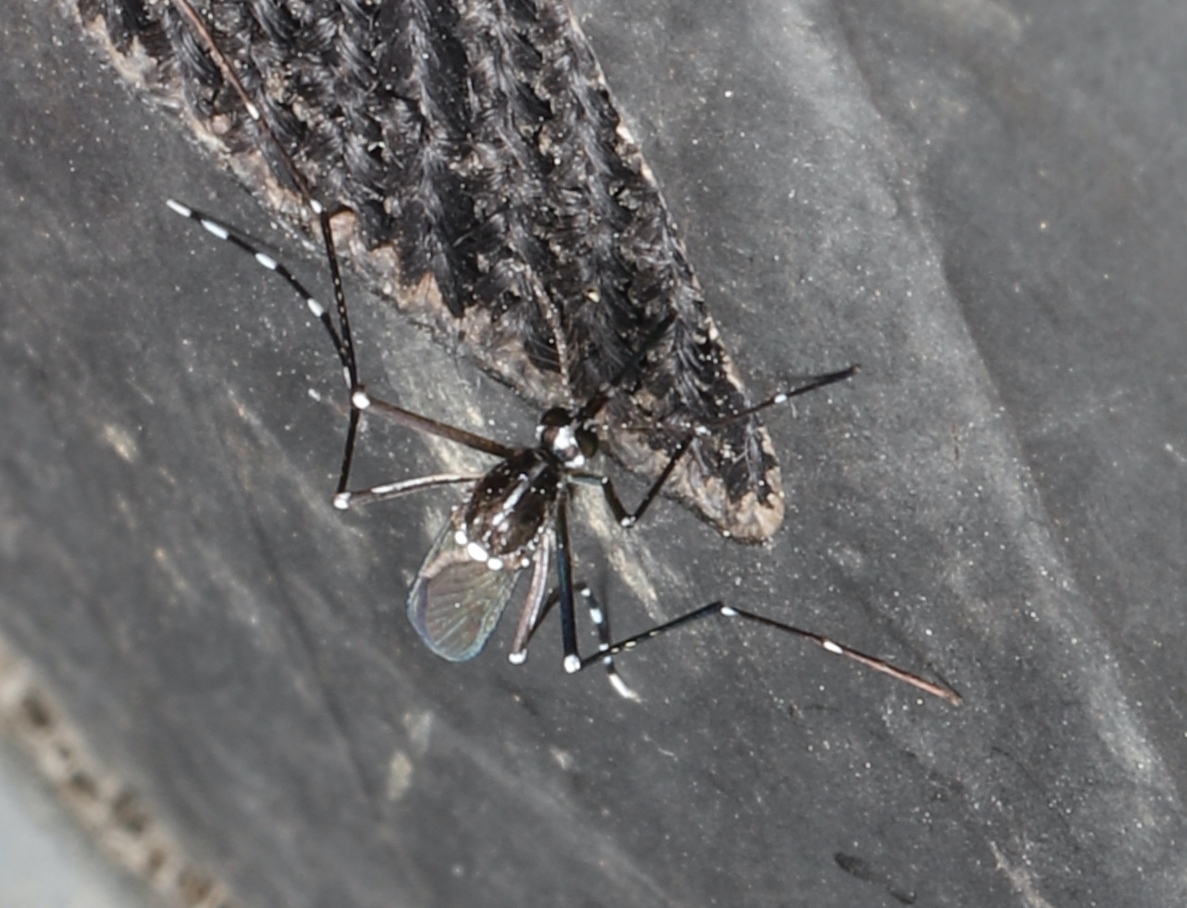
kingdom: Animalia
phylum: Arthropoda
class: Insecta
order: Diptera
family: Culicidae
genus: Aedes
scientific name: Aedes albopictus
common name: Tiger mosquito
